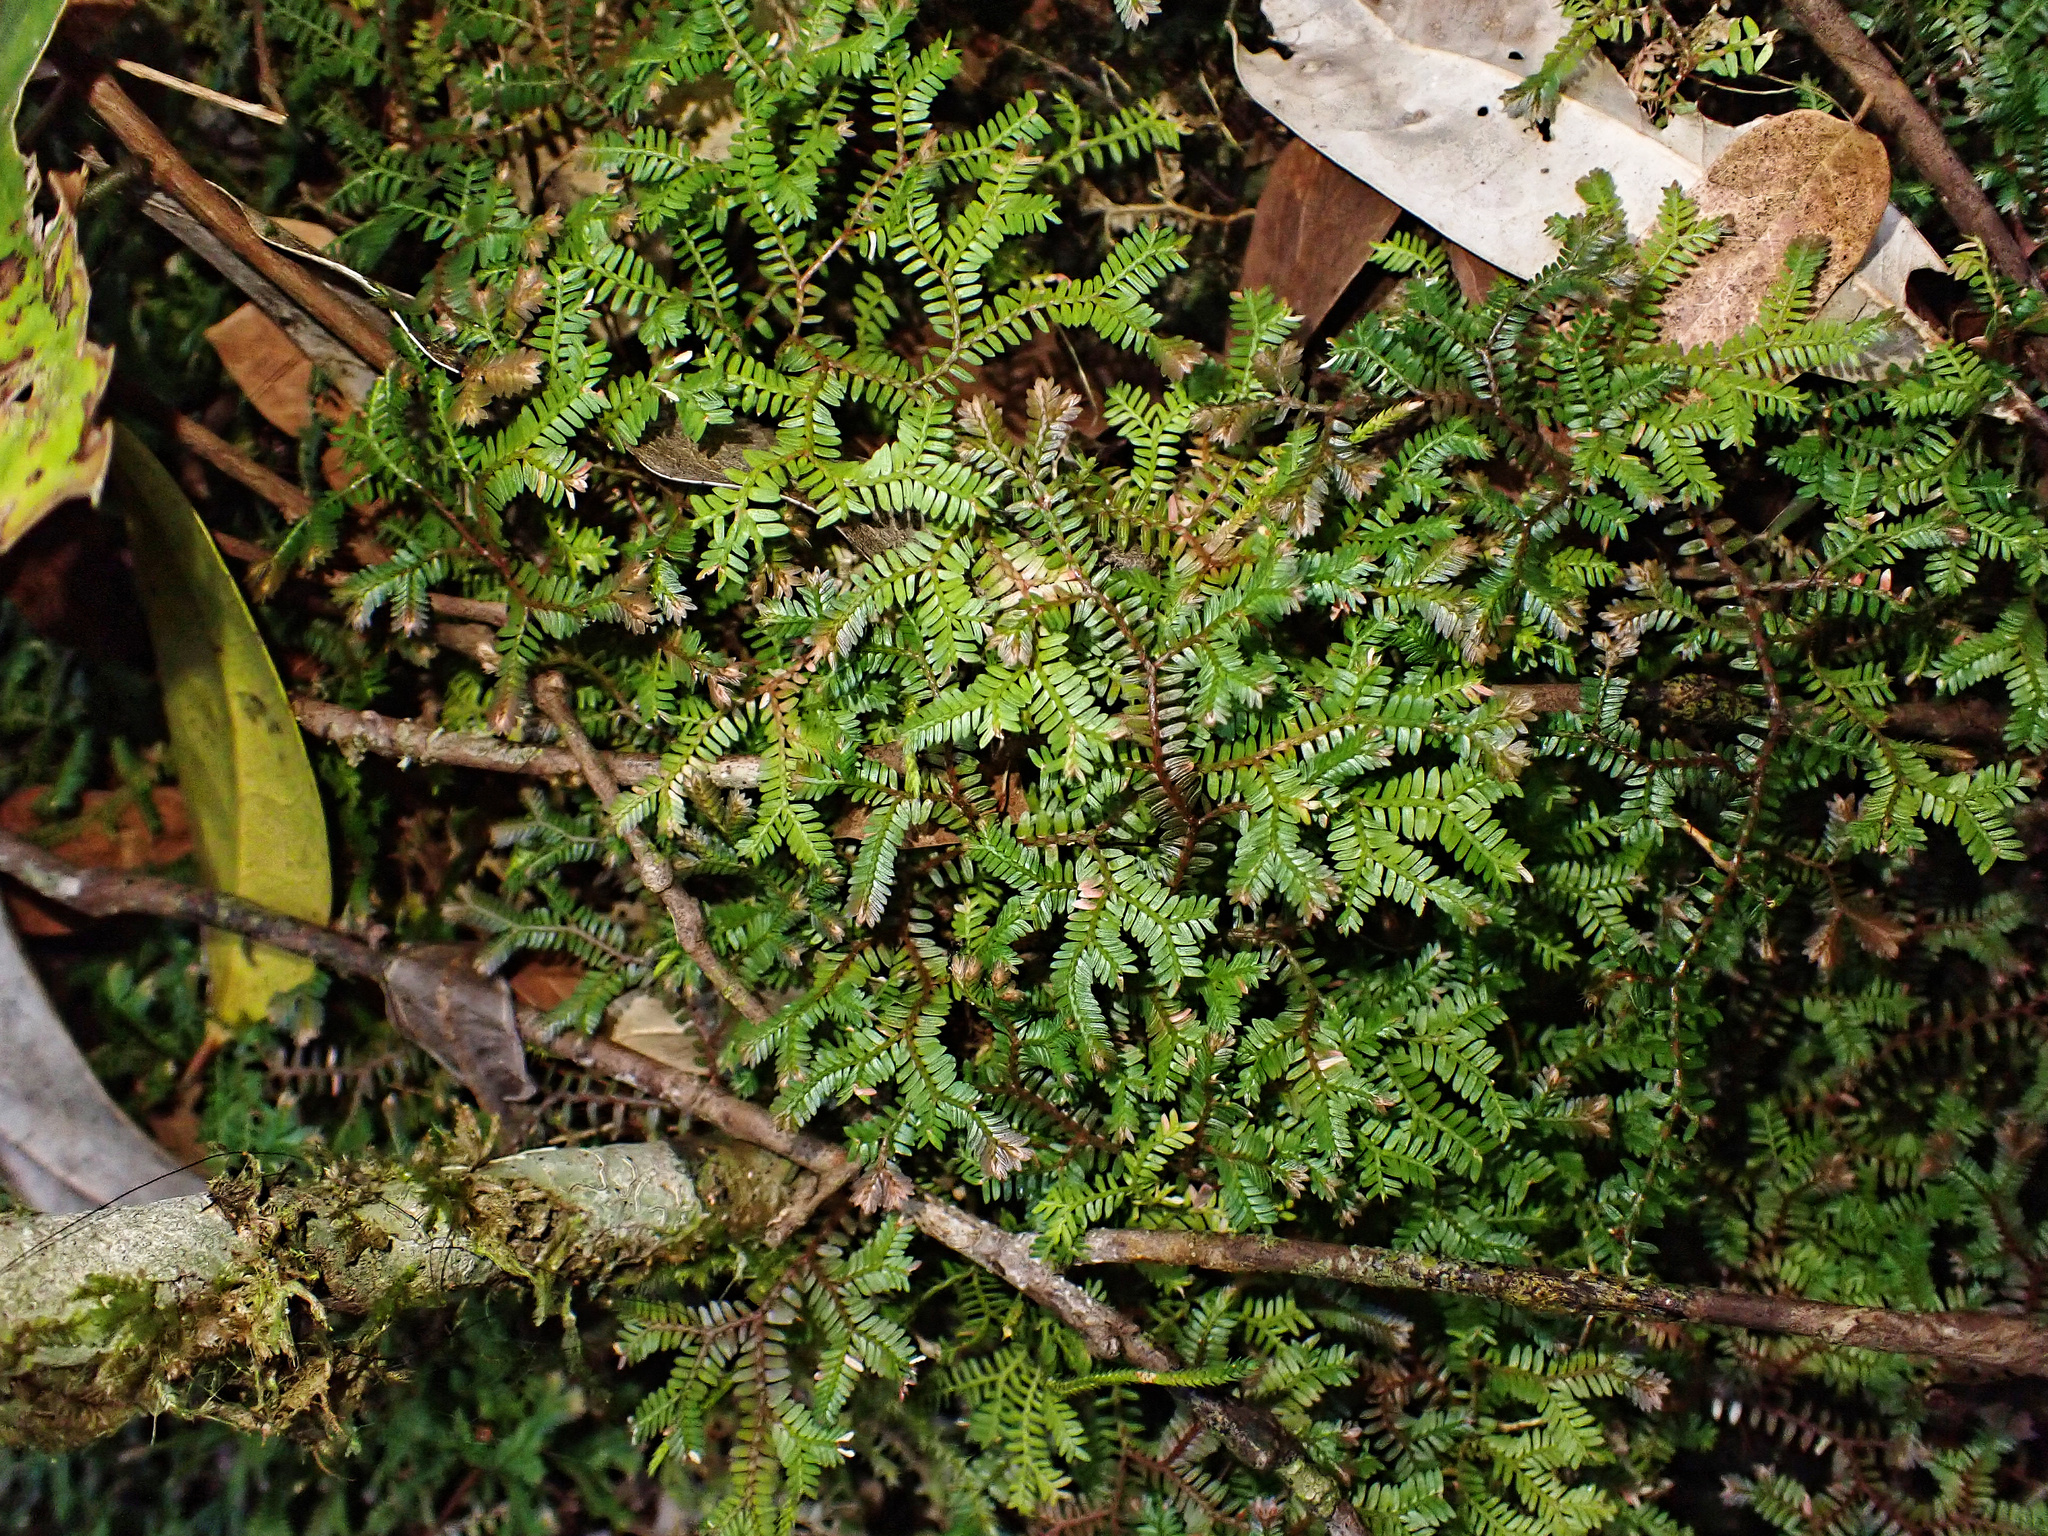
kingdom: Plantae
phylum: Tracheophyta
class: Lycopodiopsida
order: Selaginellales
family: Selaginellaceae
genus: Selaginella
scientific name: Selaginella australiensis
